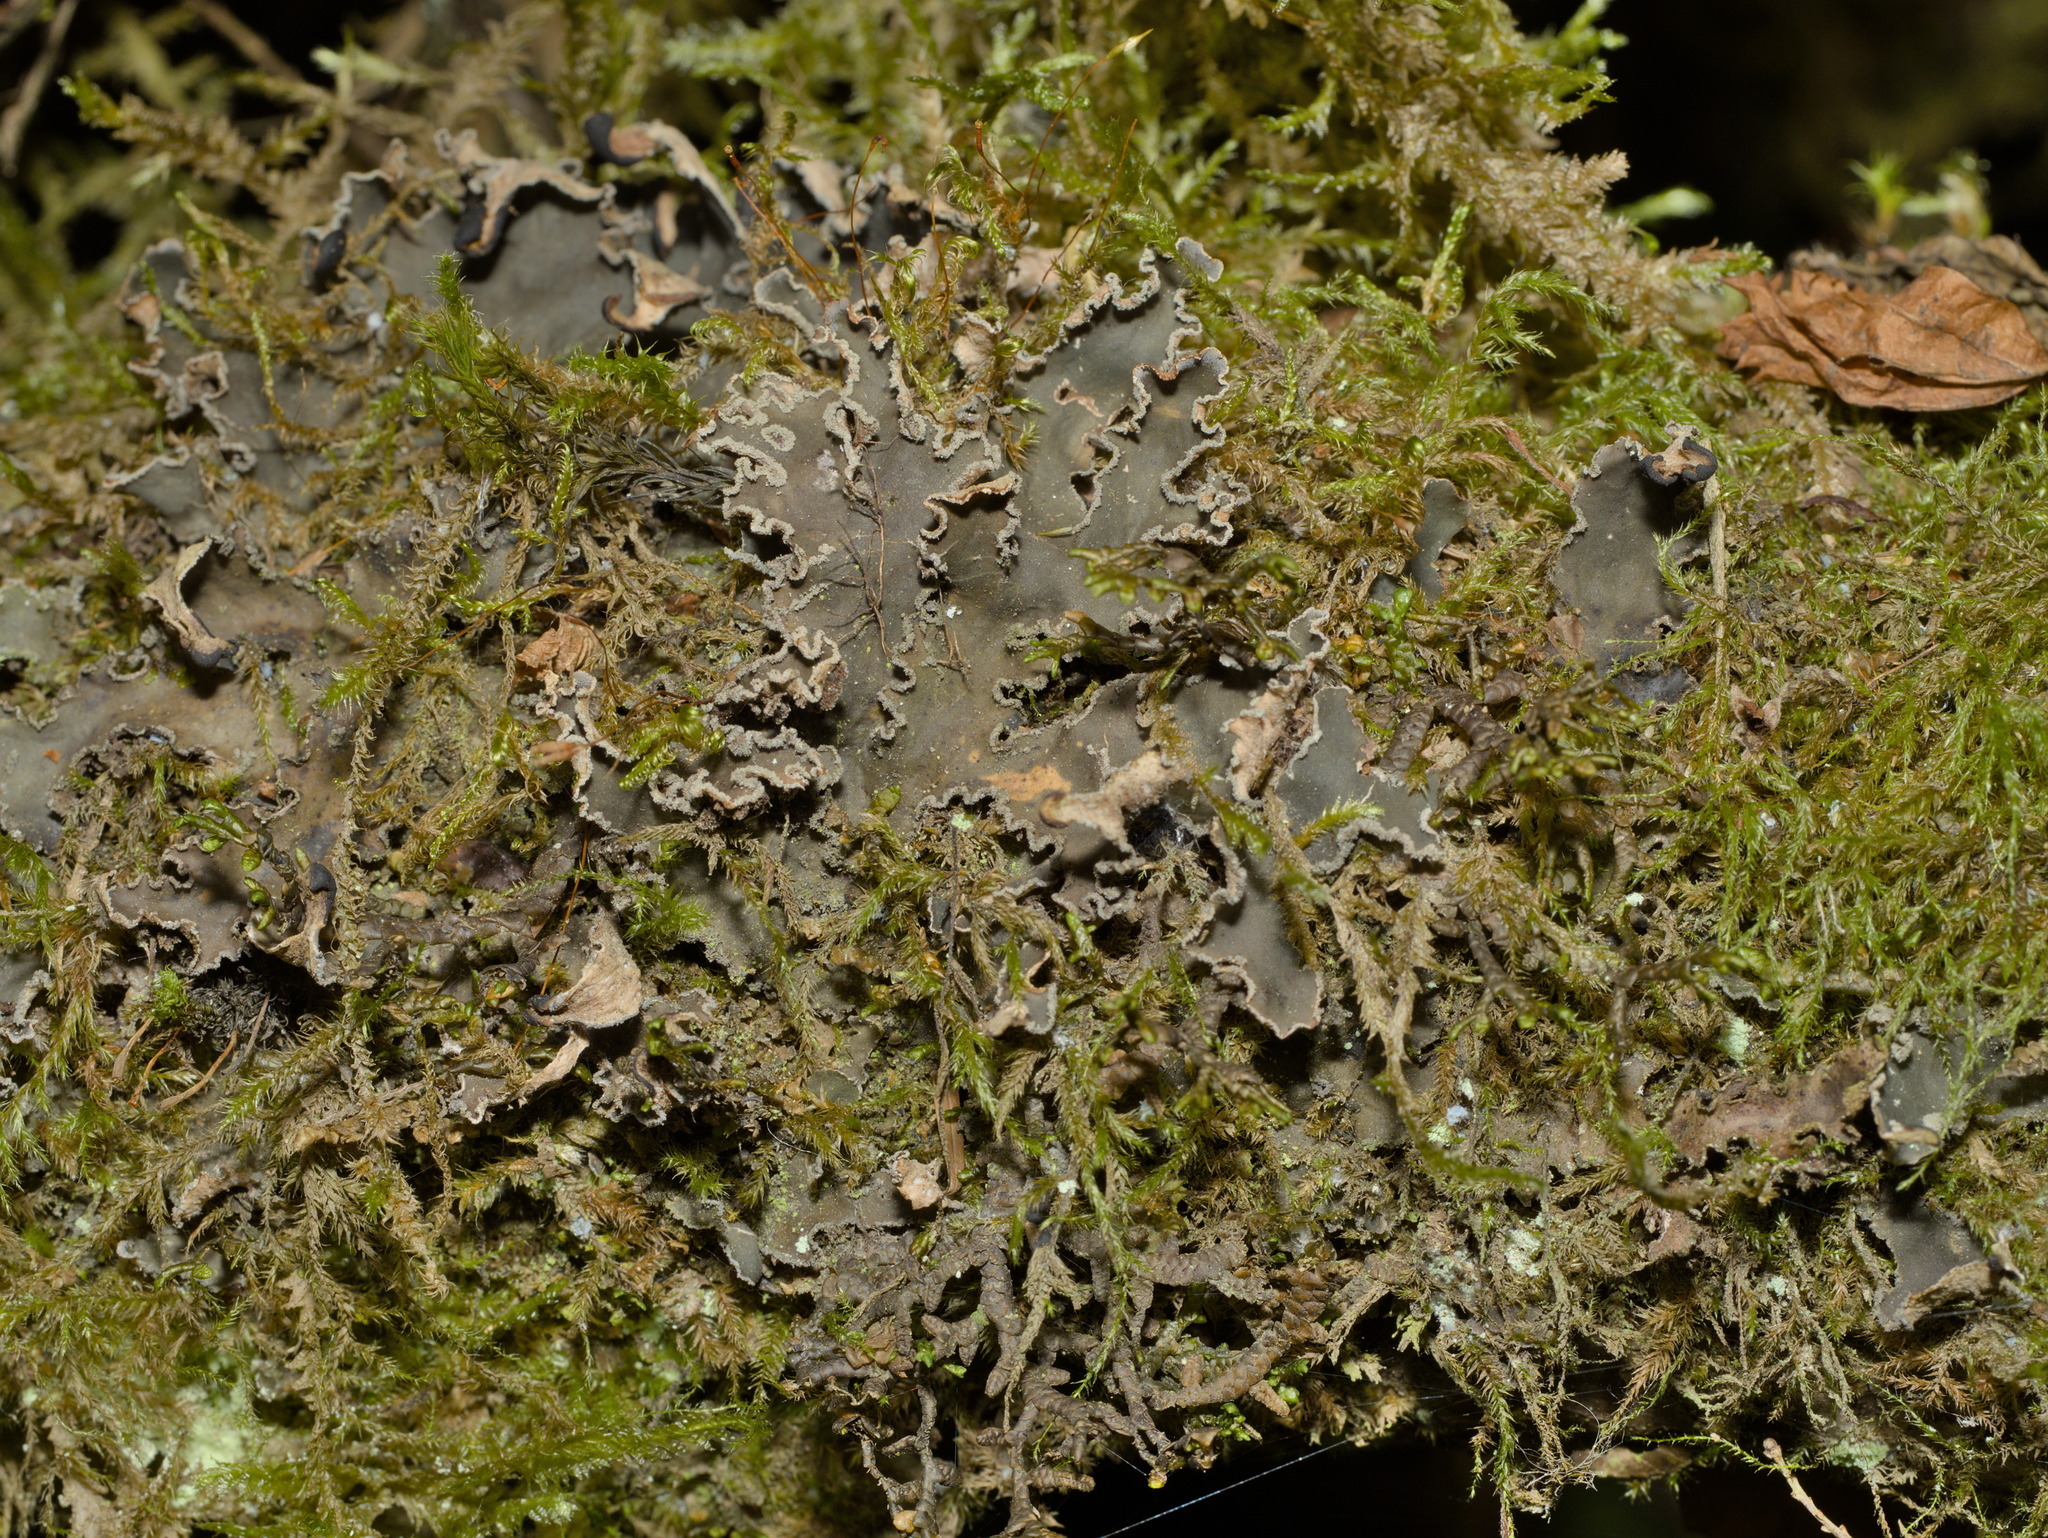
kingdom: Fungi
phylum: Ascomycota
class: Lecanoromycetes
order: Peltigerales
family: Peltigeraceae
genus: Peltigera
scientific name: Peltigera collina
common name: Gritty tree pelt lichen
